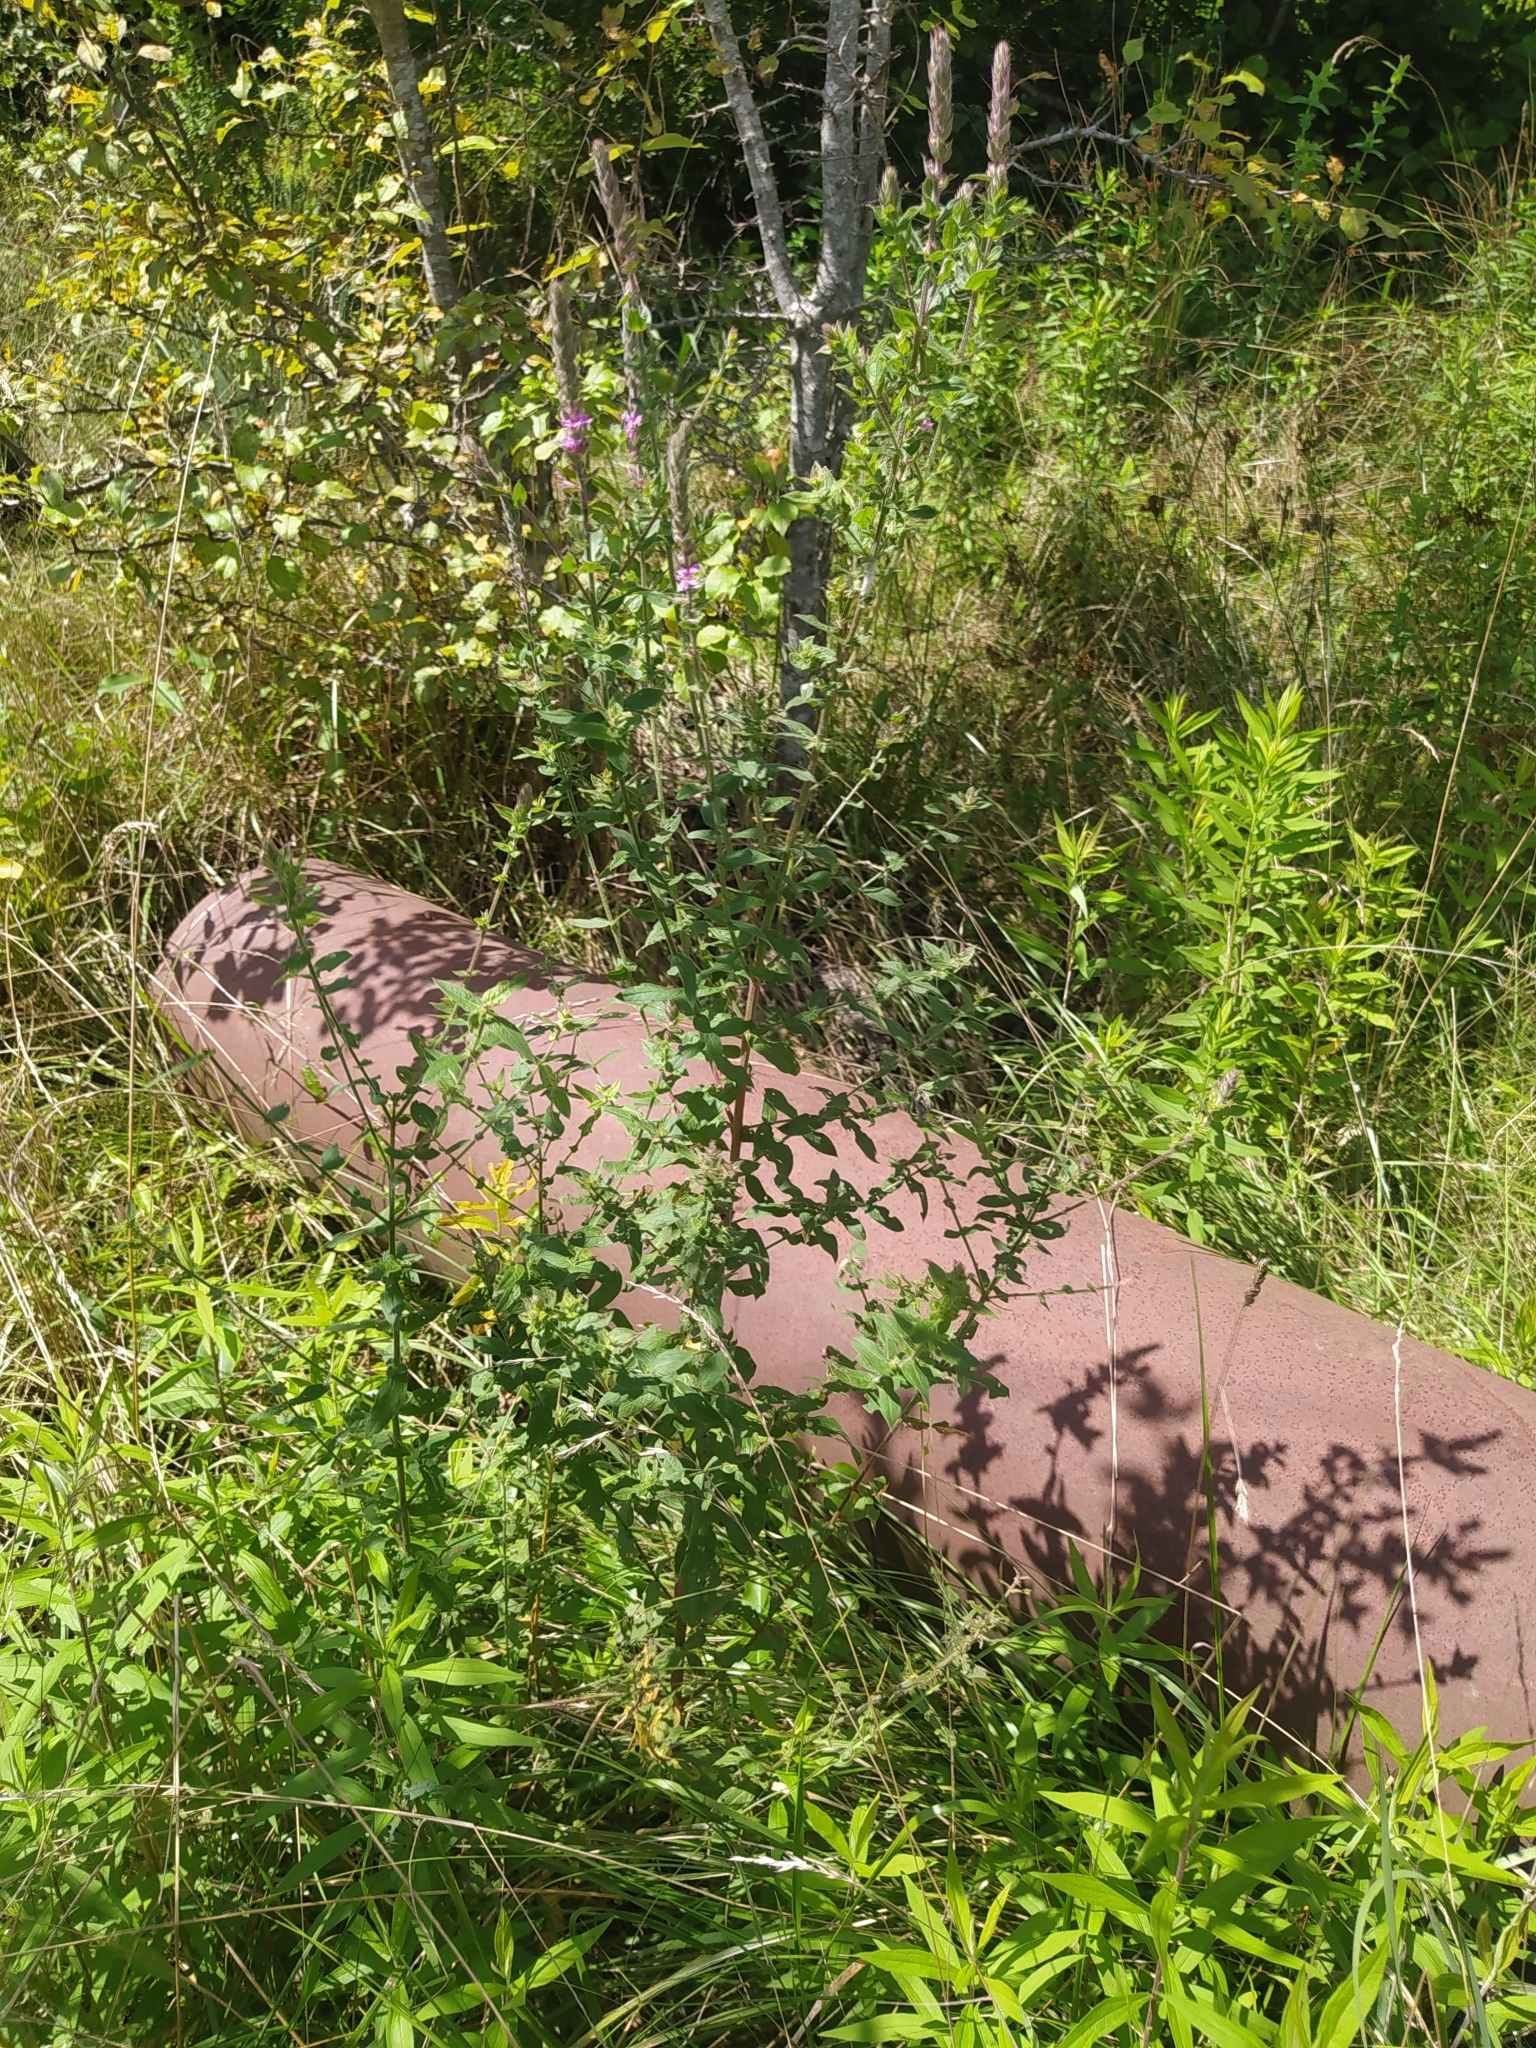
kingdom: Plantae
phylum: Tracheophyta
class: Magnoliopsida
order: Myrtales
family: Lythraceae
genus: Lythrum
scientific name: Lythrum salicaria
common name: Purple loosestrife
